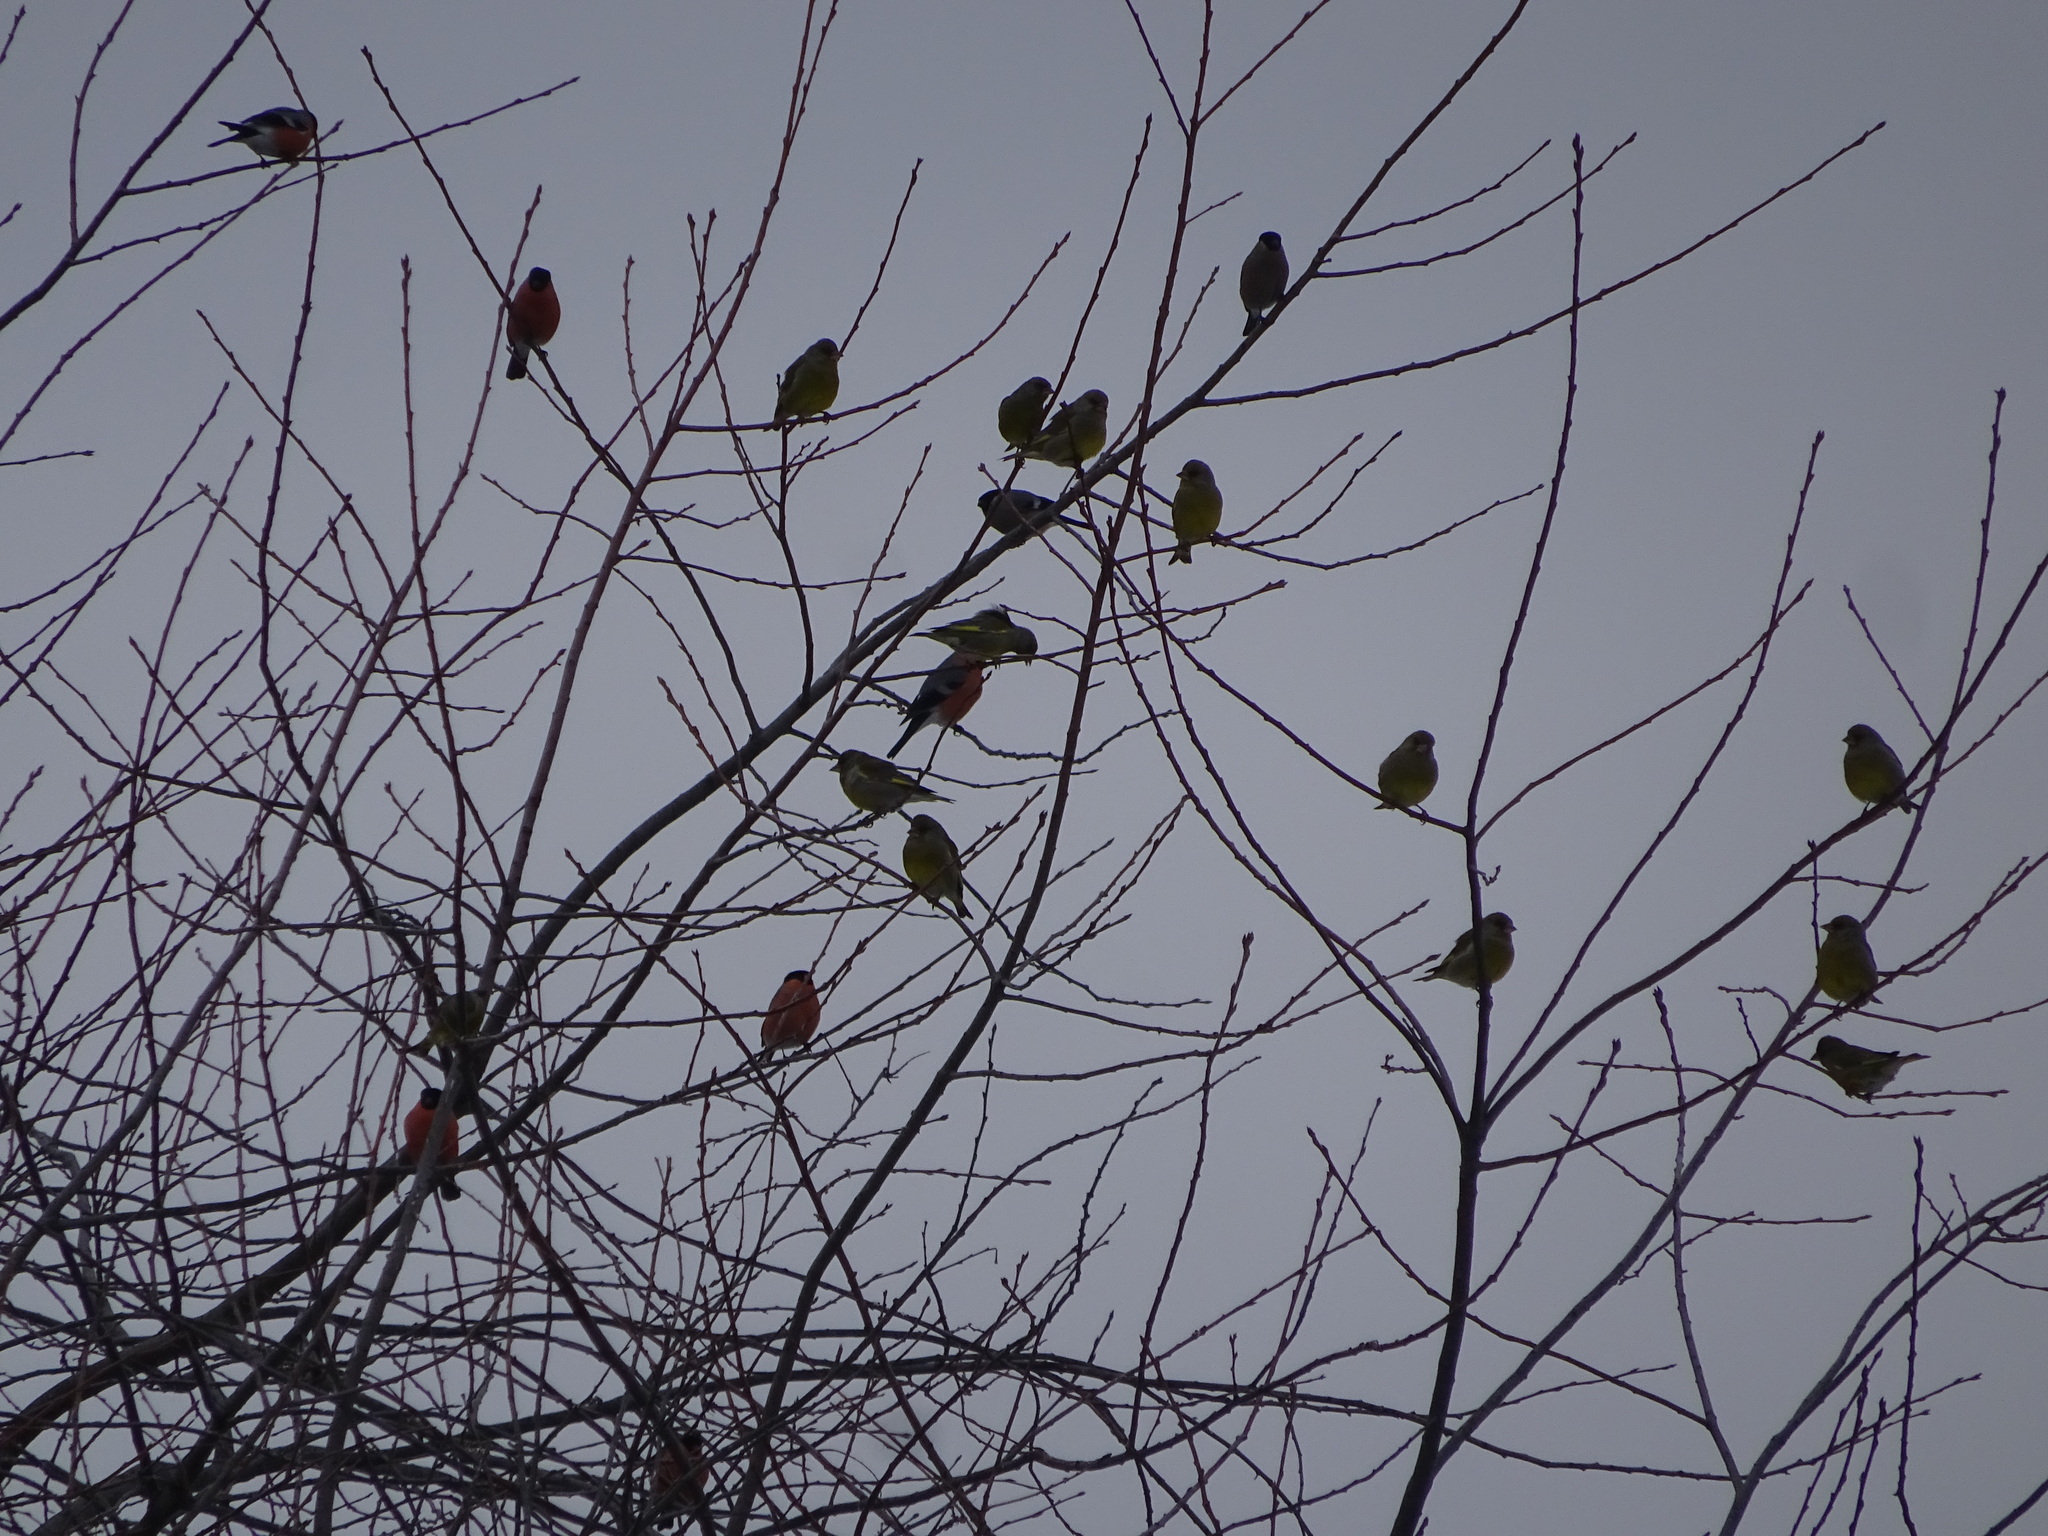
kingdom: Plantae
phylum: Tracheophyta
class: Liliopsida
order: Poales
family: Poaceae
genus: Chloris
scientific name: Chloris chloris
